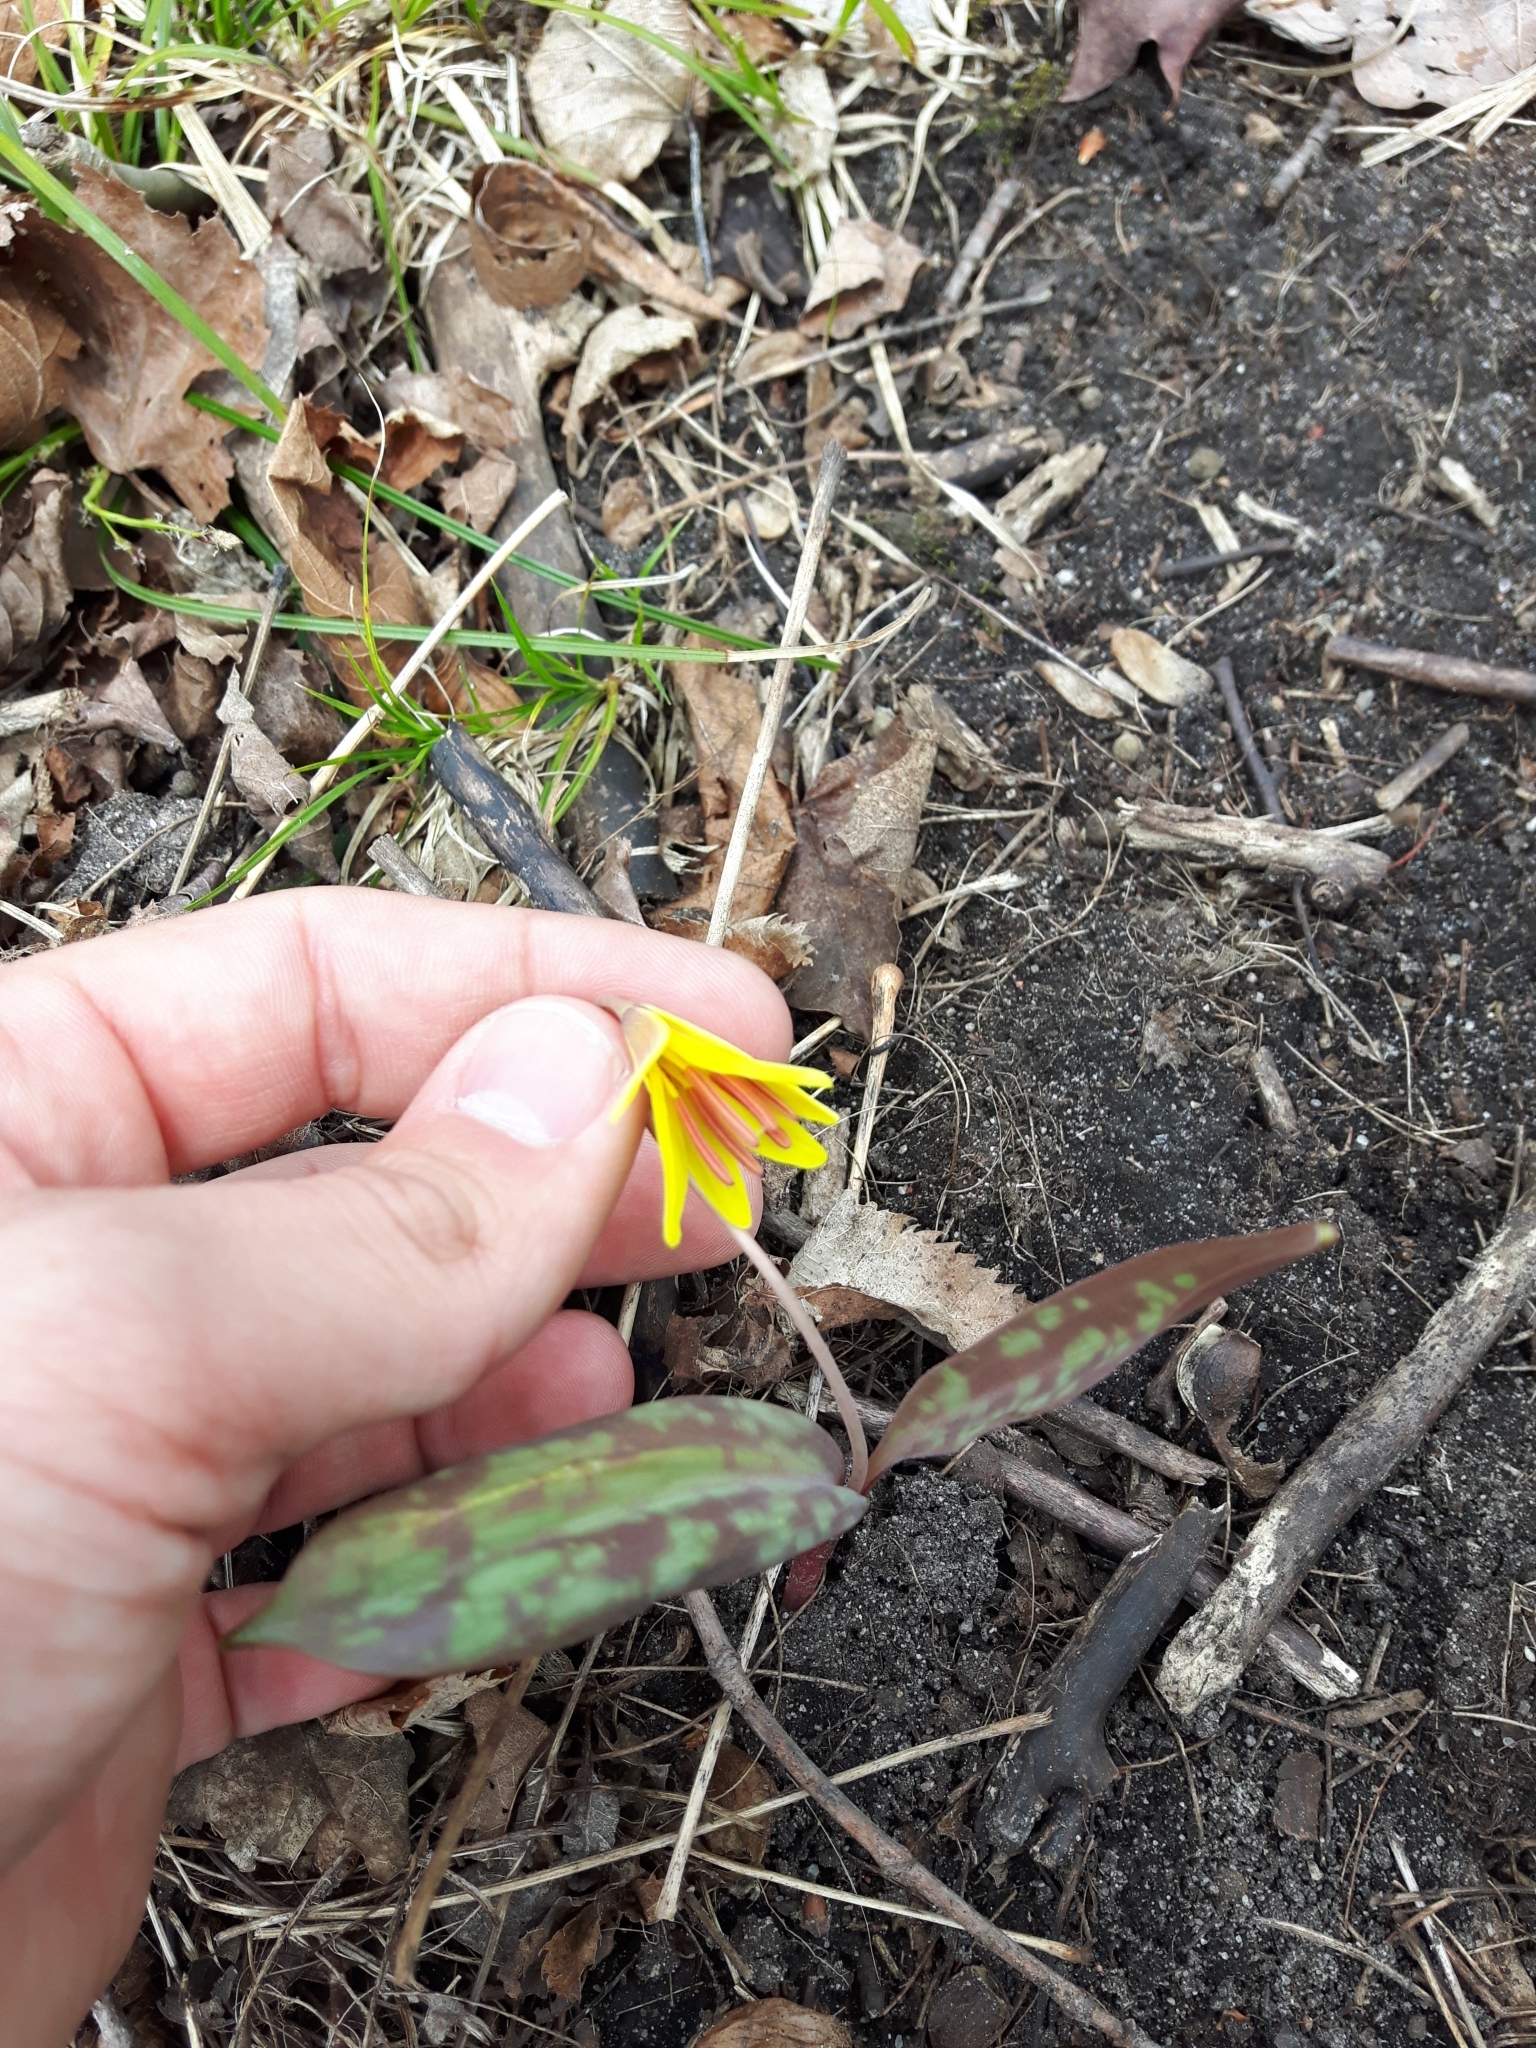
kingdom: Plantae
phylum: Tracheophyta
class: Liliopsida
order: Liliales
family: Liliaceae
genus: Erythronium
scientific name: Erythronium americanum
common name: Yellow adder's-tongue
